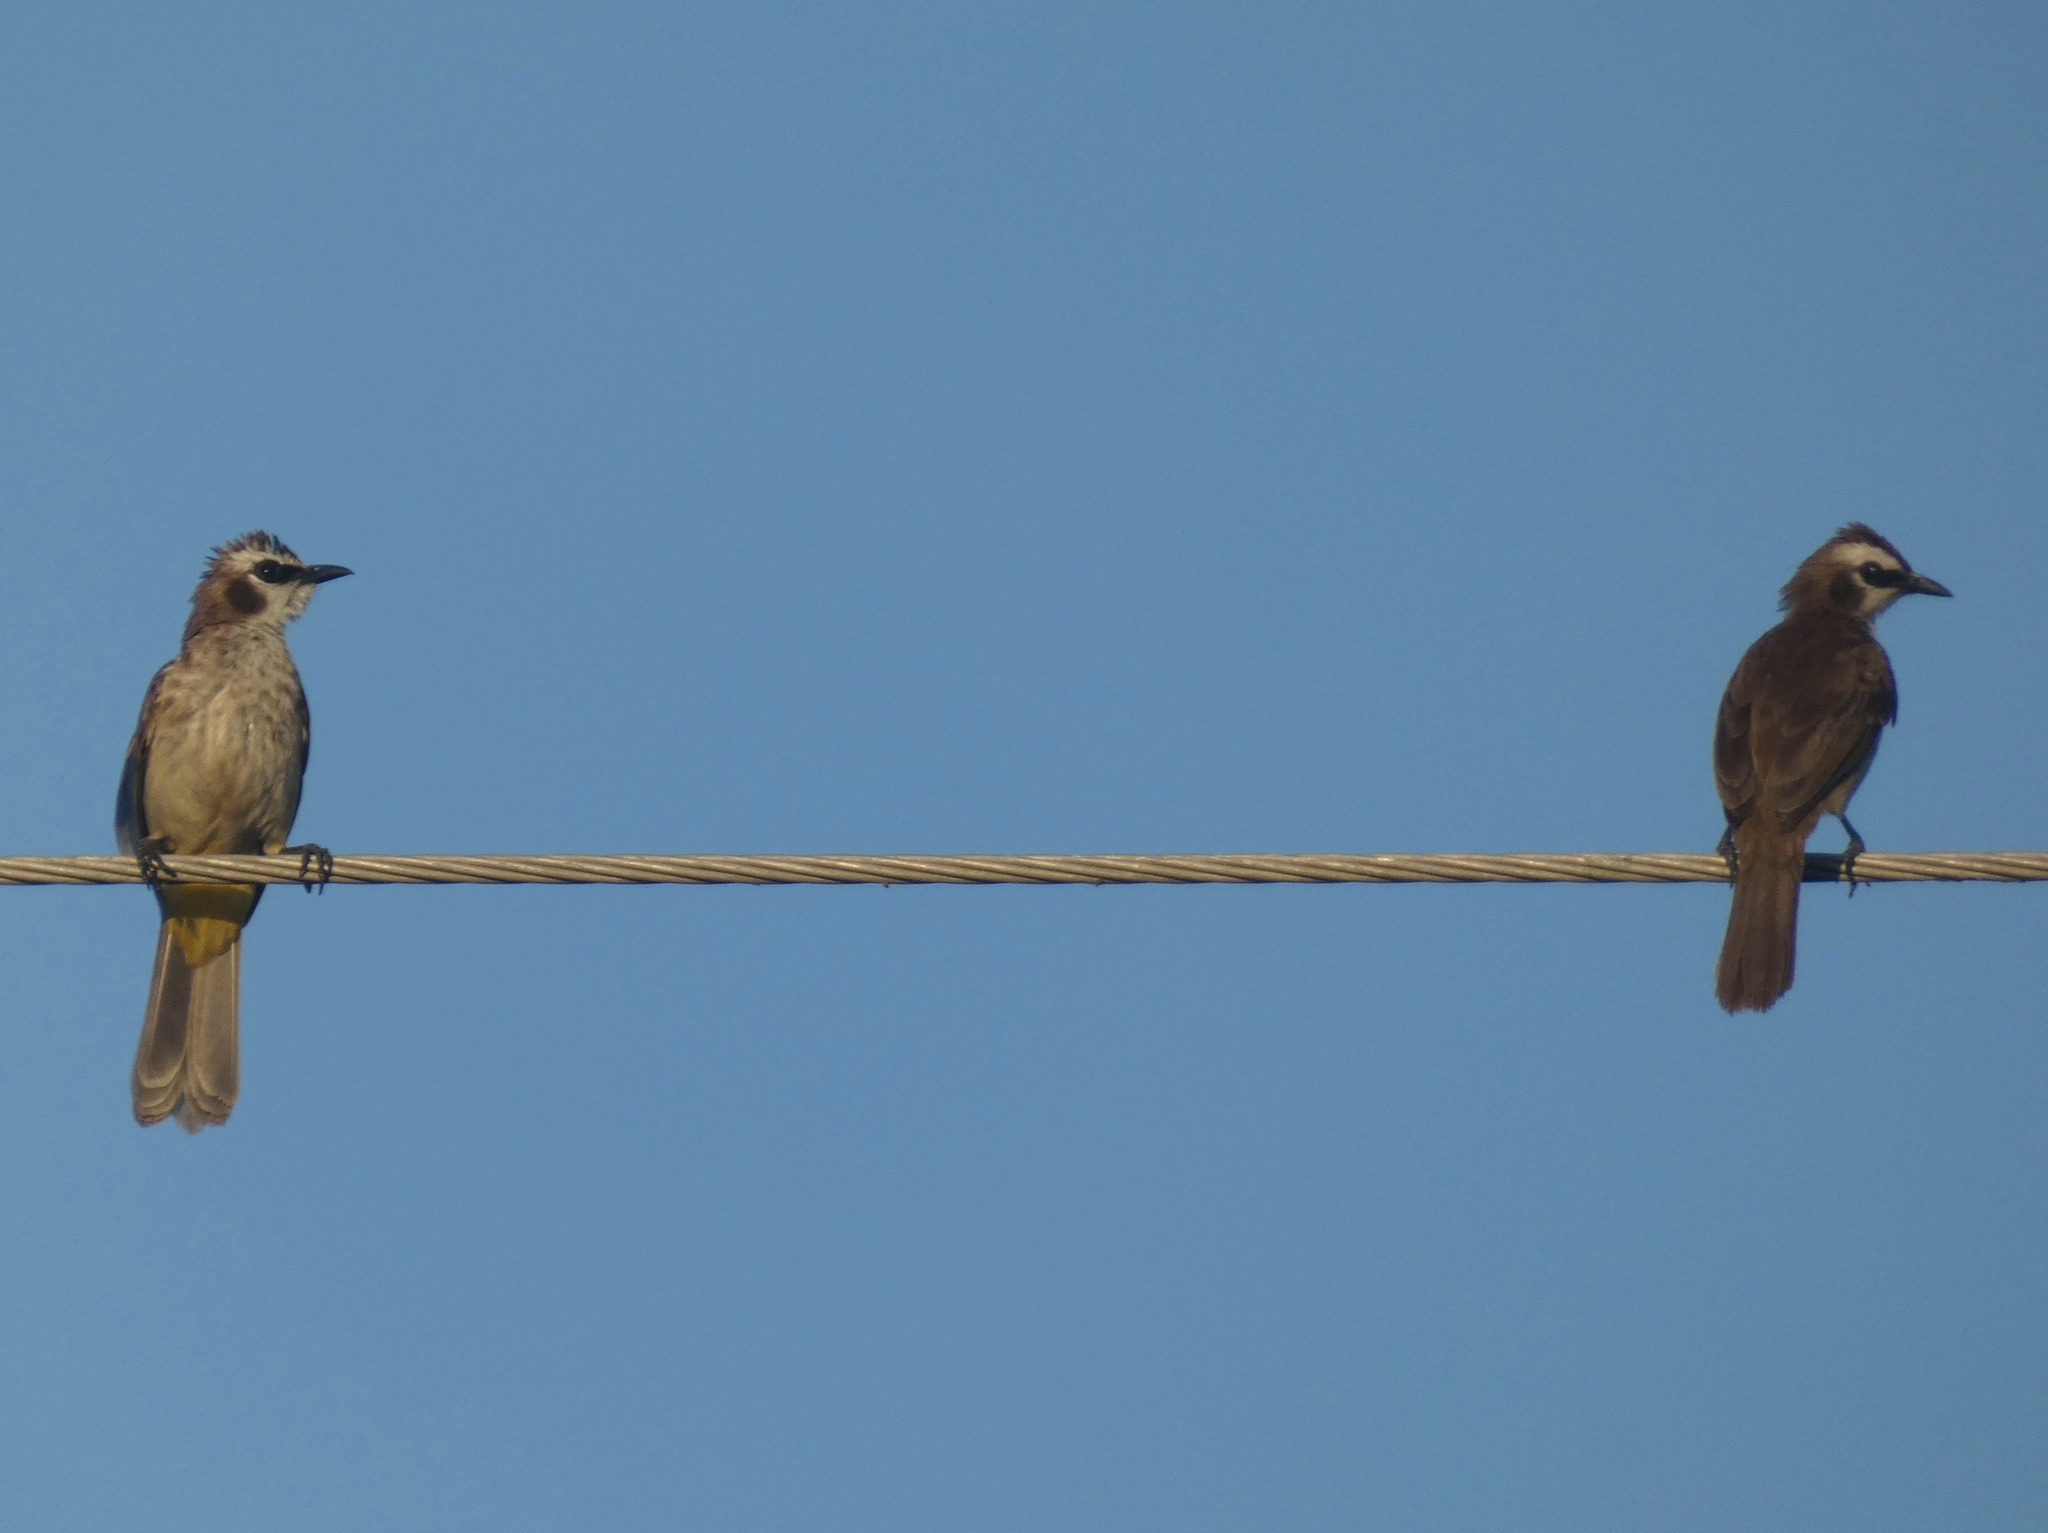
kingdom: Animalia
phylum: Chordata
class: Aves
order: Passeriformes
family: Pycnonotidae
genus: Pycnonotus
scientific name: Pycnonotus goiavier
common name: Yellow-vented bulbul
